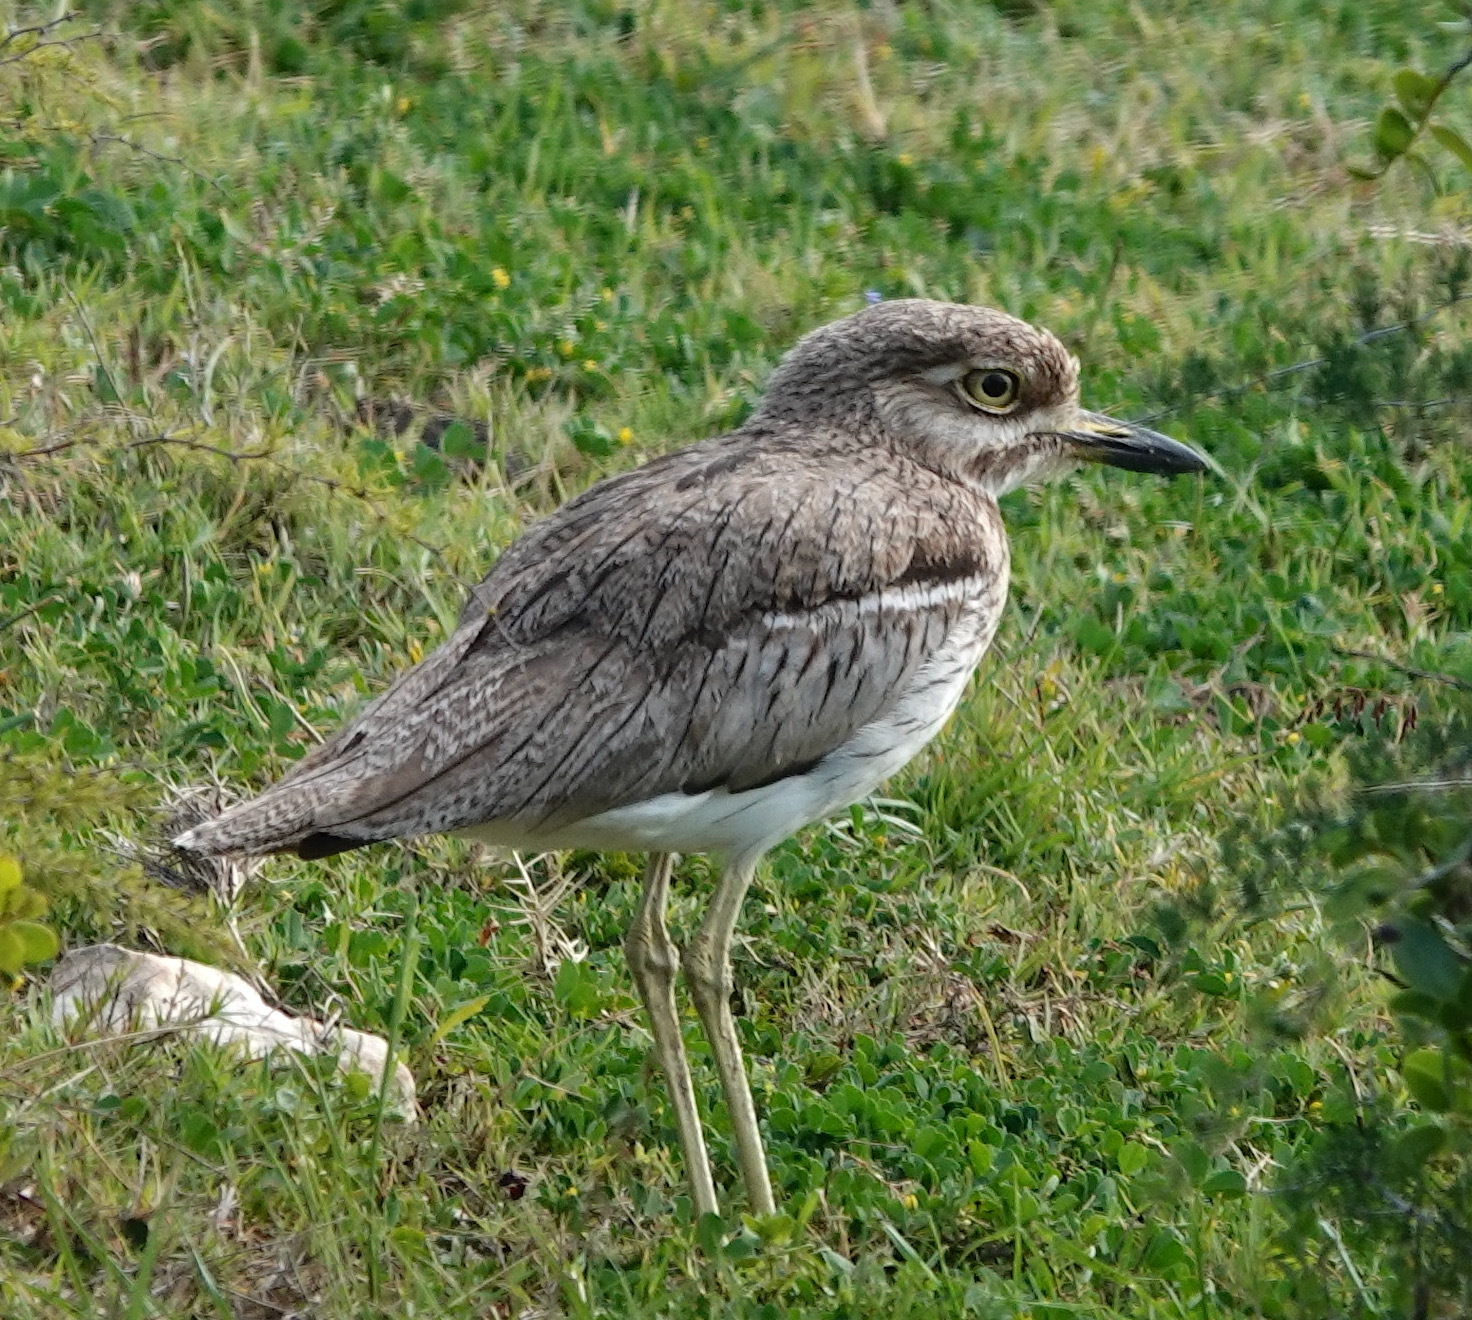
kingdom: Animalia
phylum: Chordata
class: Aves
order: Charadriiformes
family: Burhinidae
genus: Burhinus
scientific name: Burhinus vermiculatus
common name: Water thick-knee
